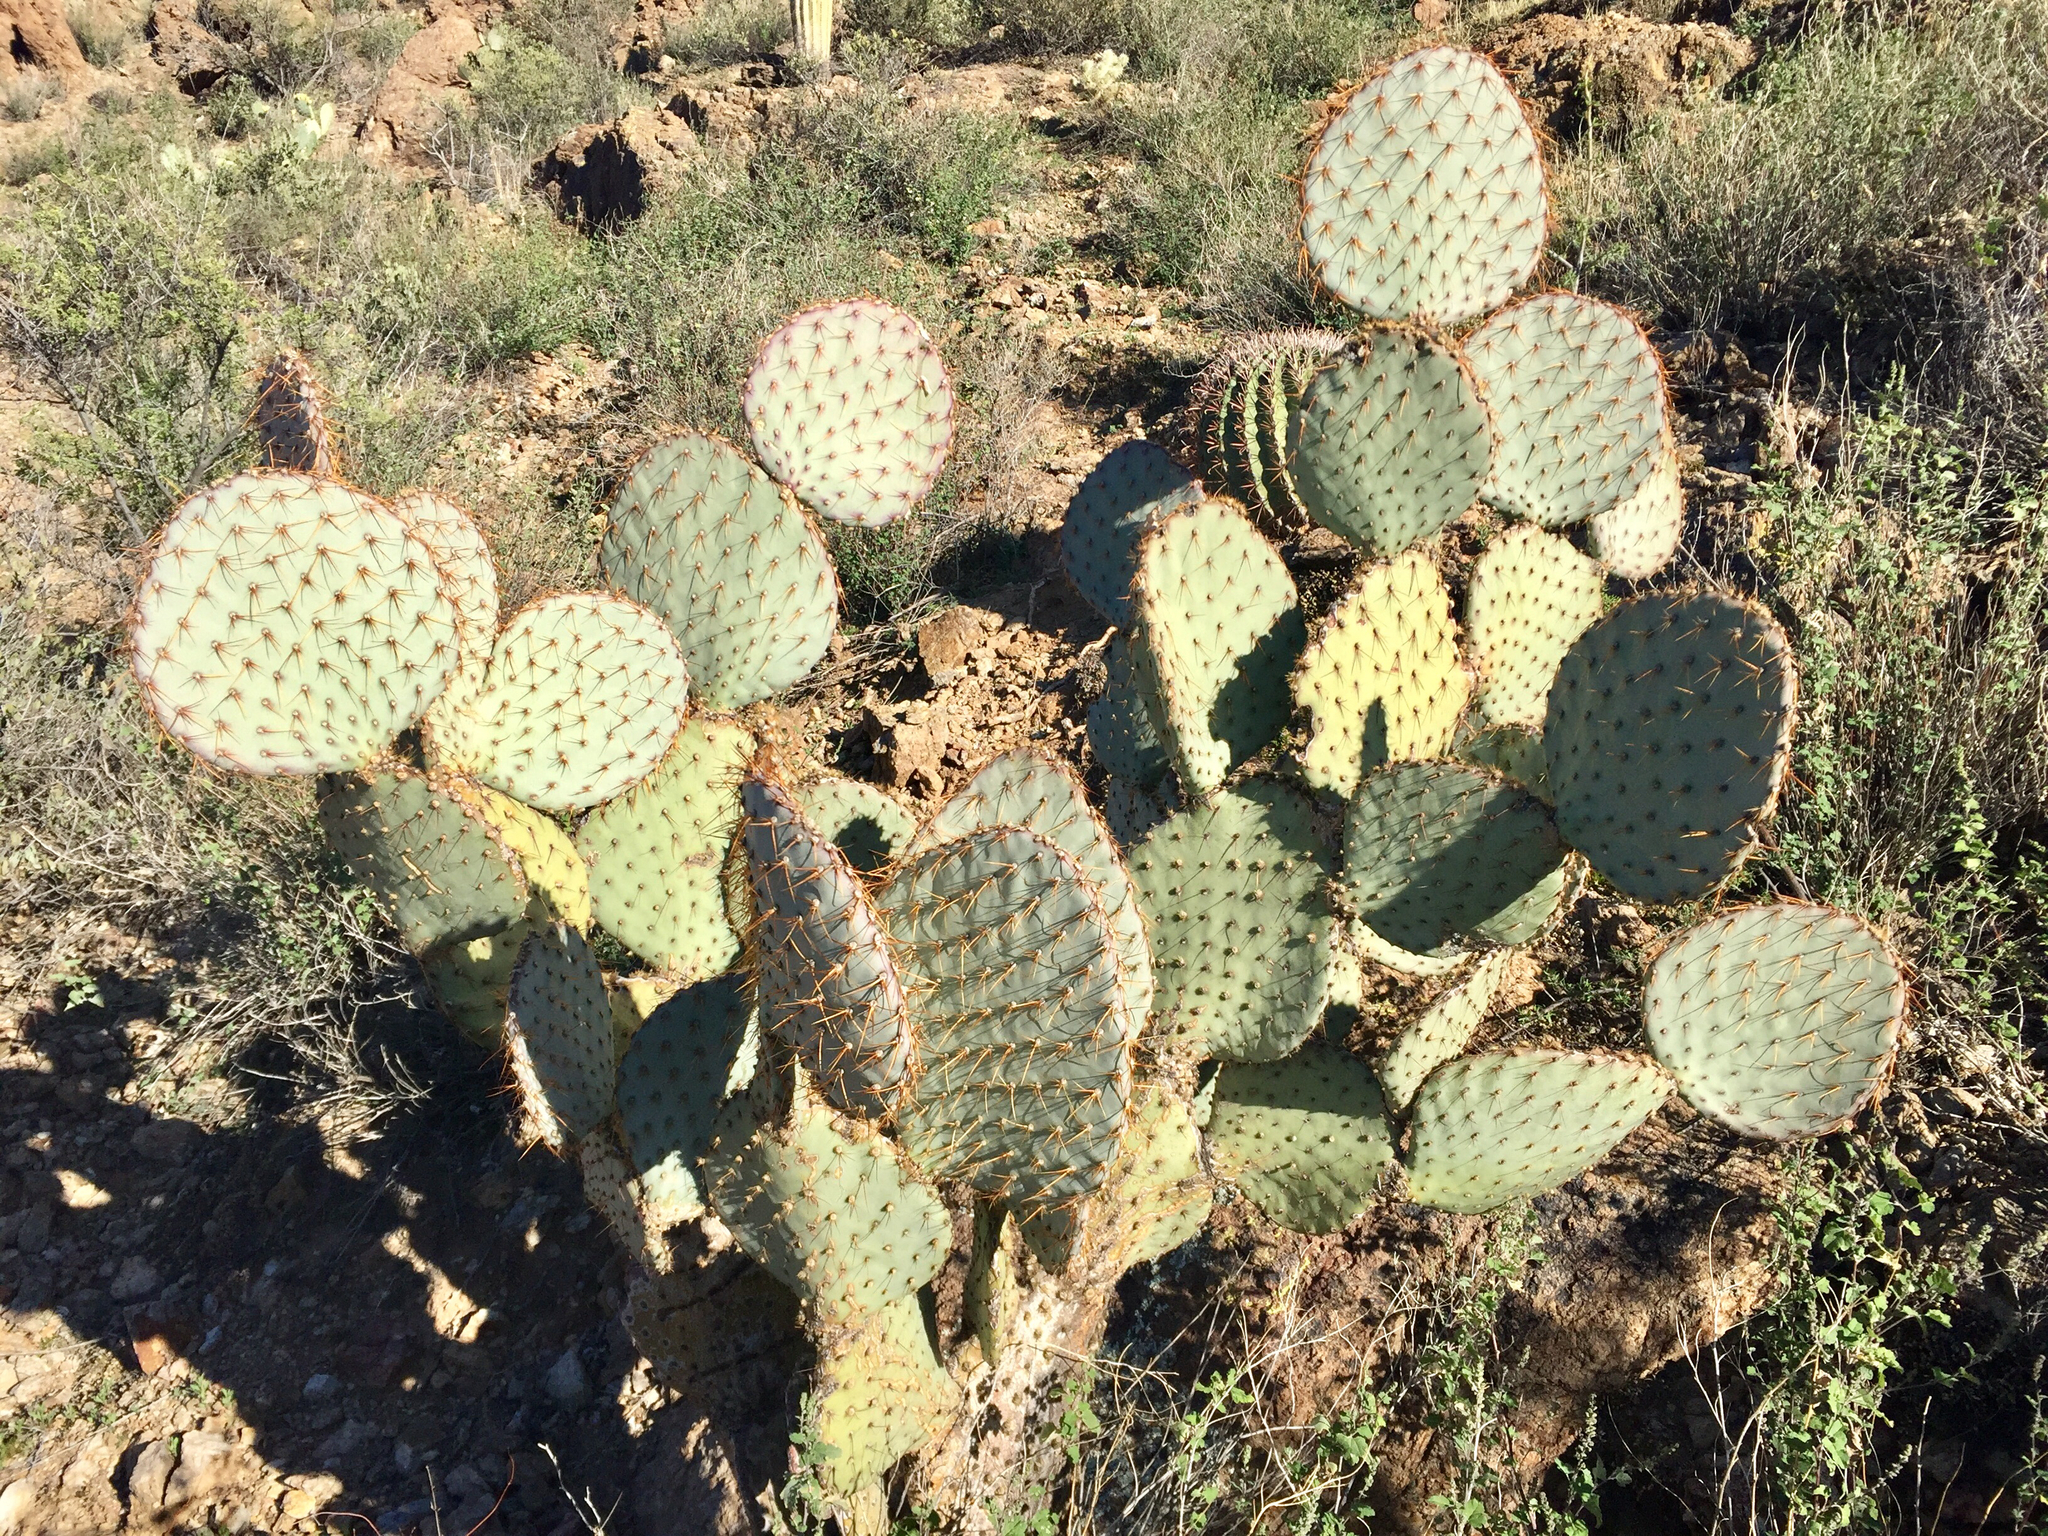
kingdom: Plantae
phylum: Tracheophyta
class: Magnoliopsida
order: Caryophyllales
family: Cactaceae
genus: Opuntia
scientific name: Opuntia chlorotica
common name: Dollar-joint prickly-pear
